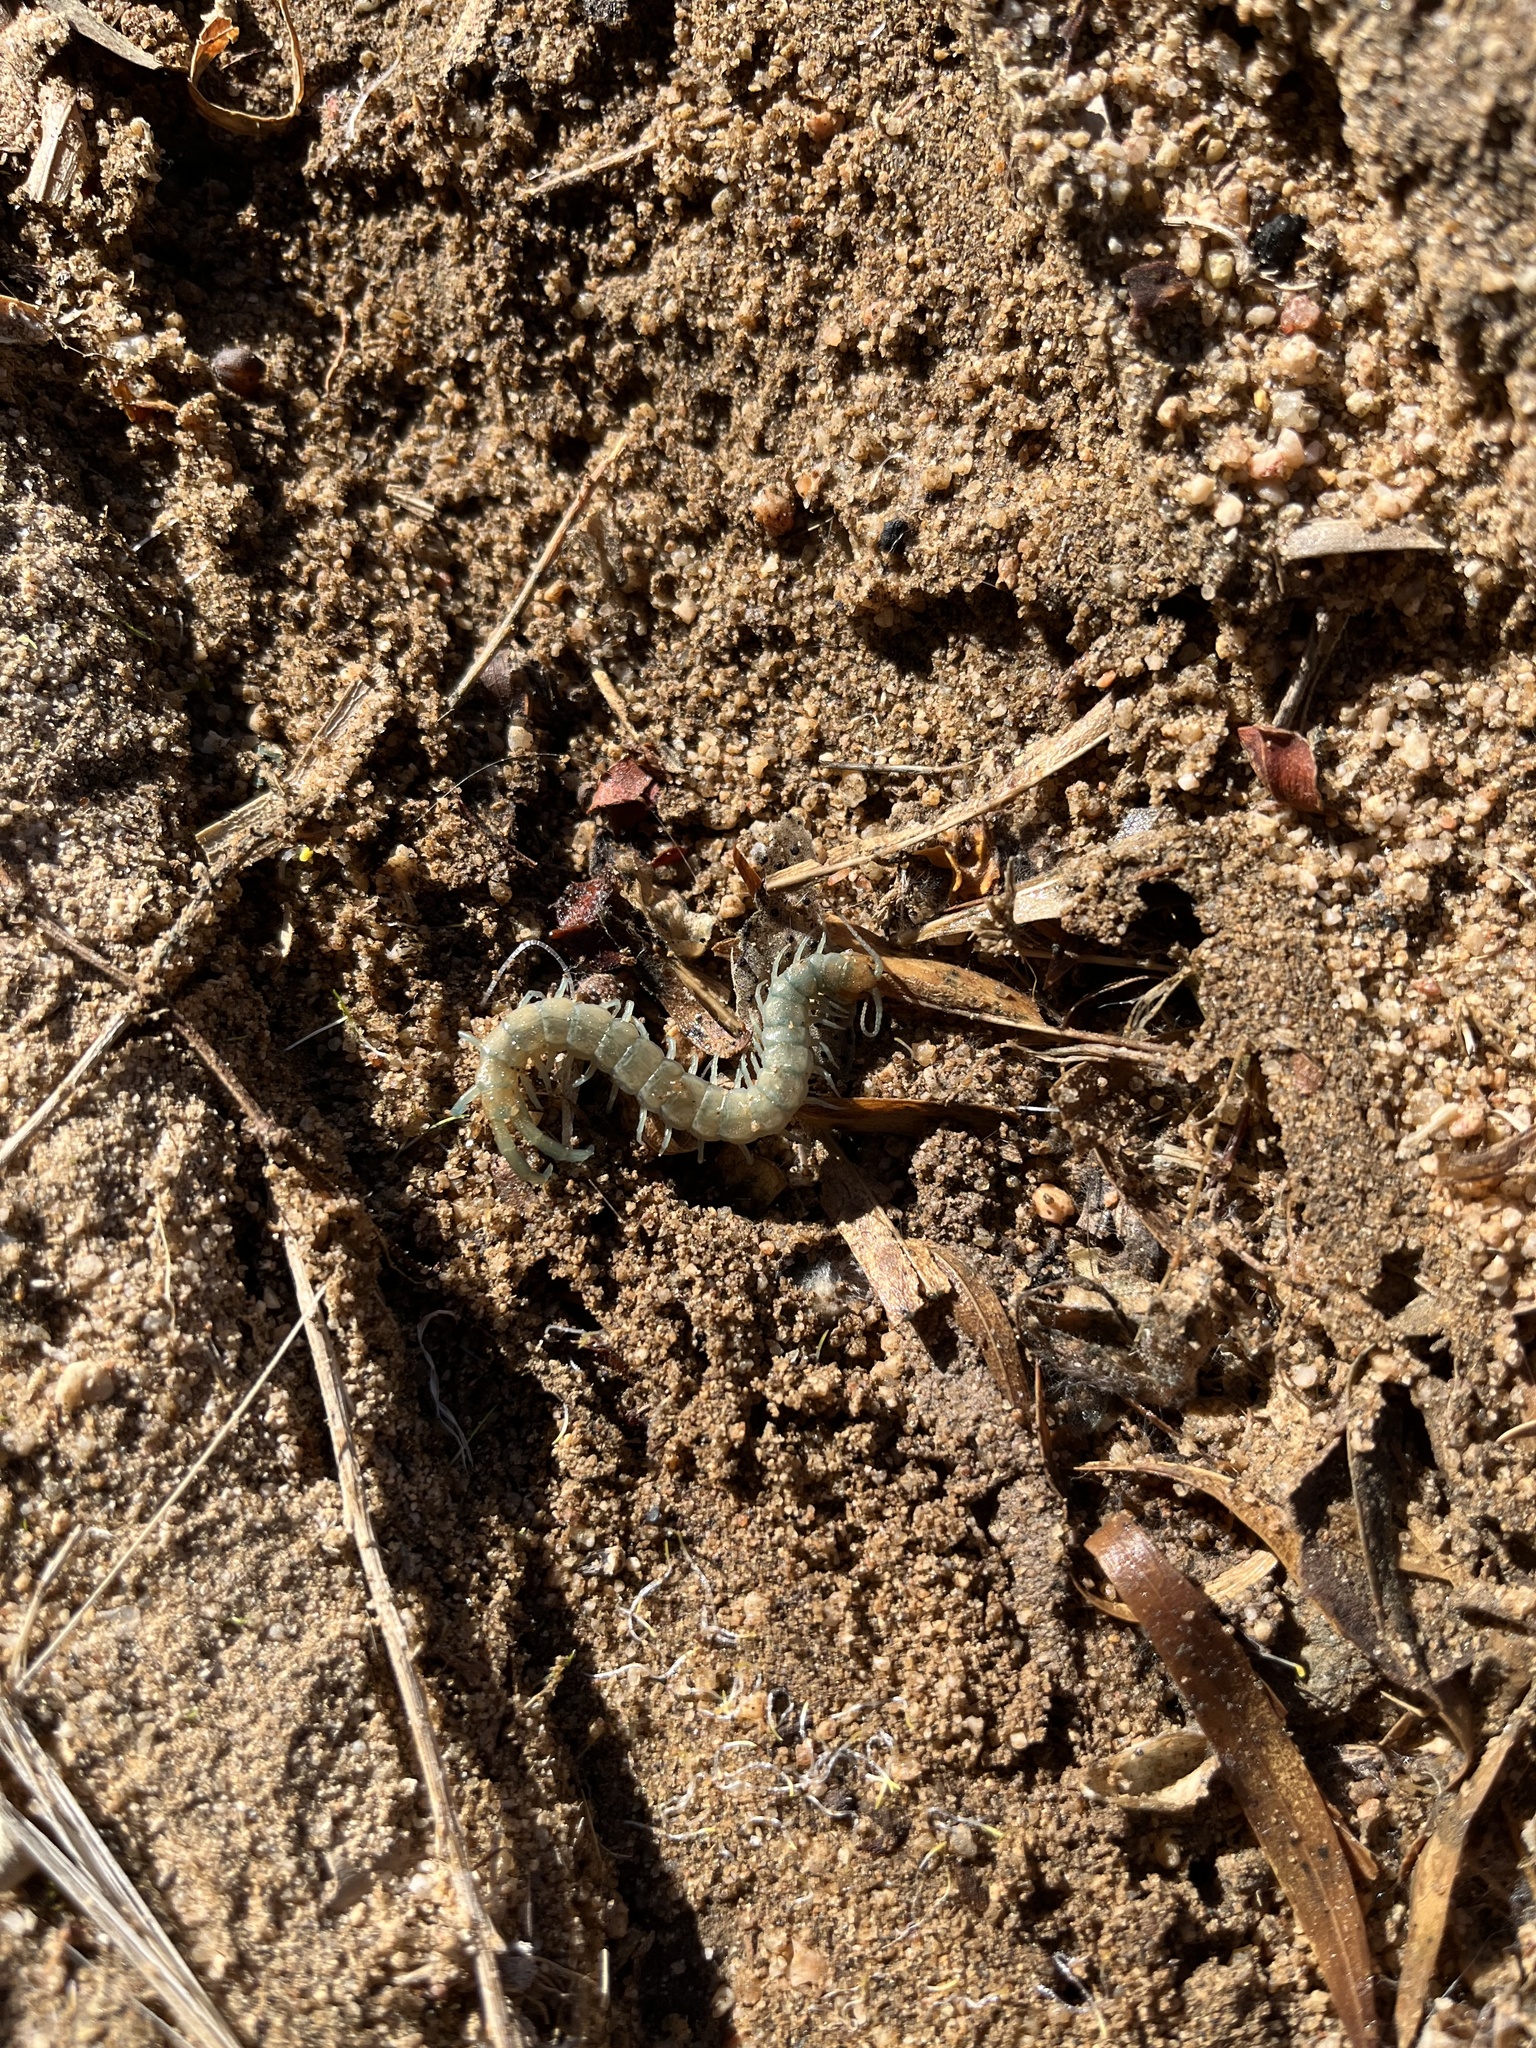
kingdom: Animalia
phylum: Arthropoda
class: Chilopoda
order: Scolopendromorpha
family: Scolopendridae
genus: Scolopendra
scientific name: Scolopendra polymorpha
